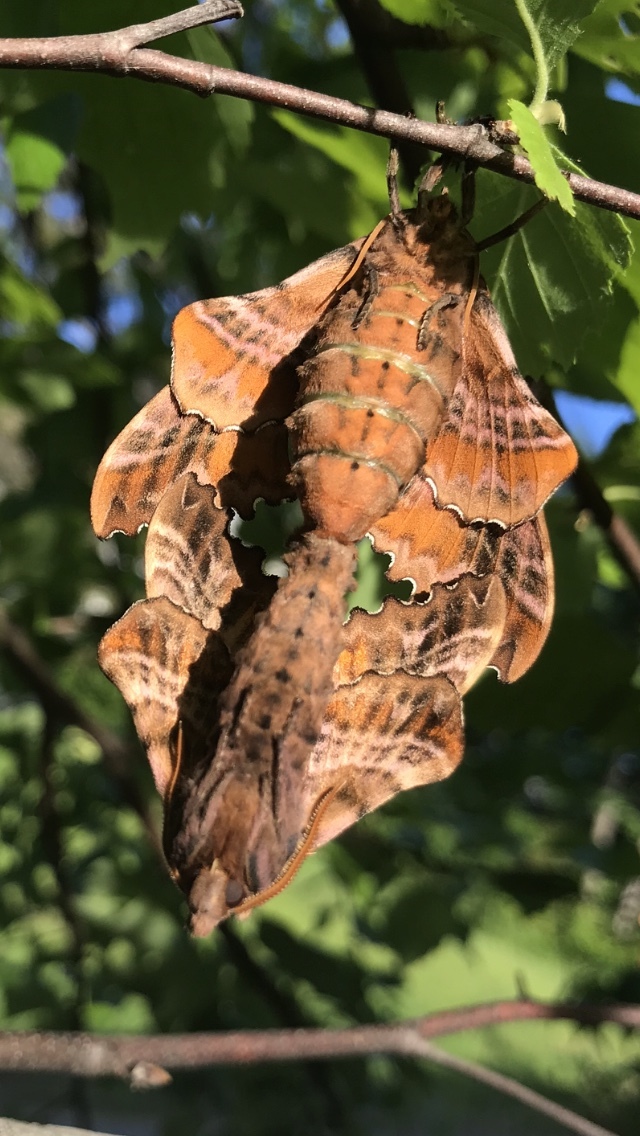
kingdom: Animalia
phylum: Arthropoda
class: Insecta
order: Lepidoptera
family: Sphingidae
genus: Paonias
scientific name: Paonias excaecata
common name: Blind-eyed sphinx
